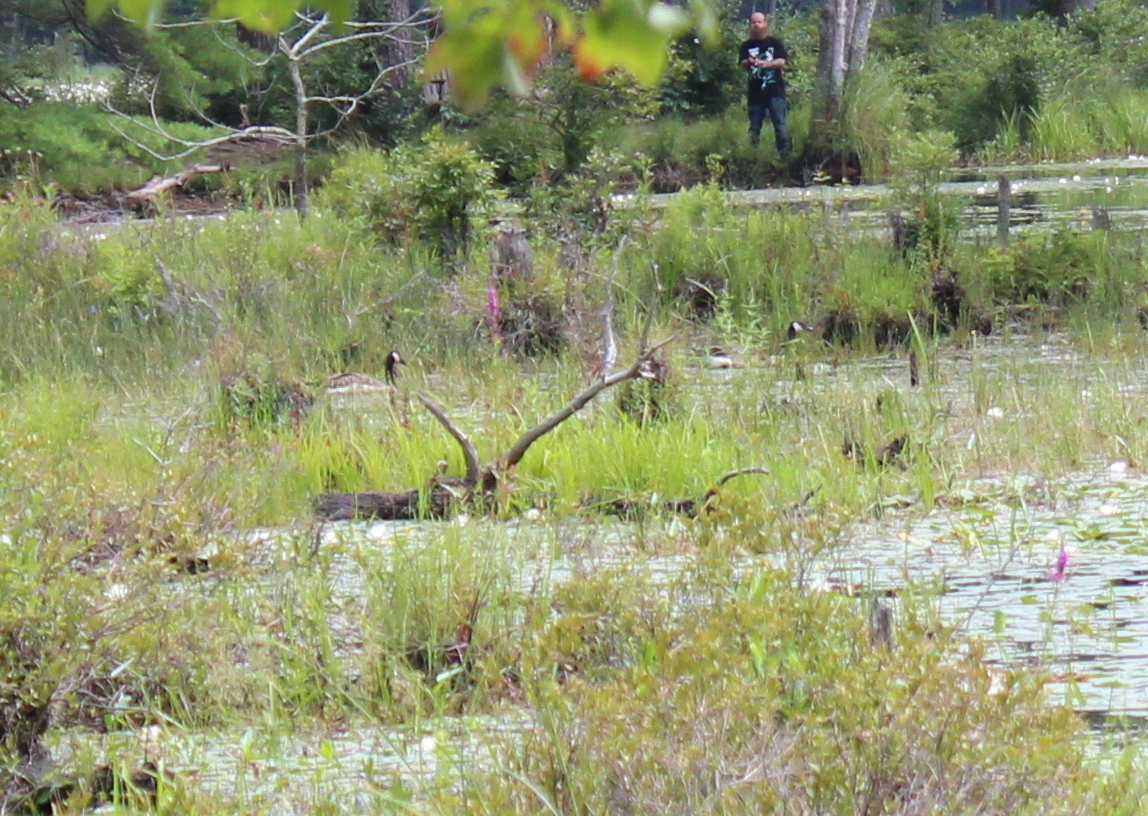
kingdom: Animalia
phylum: Chordata
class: Aves
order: Anseriformes
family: Anatidae
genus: Branta
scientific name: Branta canadensis
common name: Canada goose
